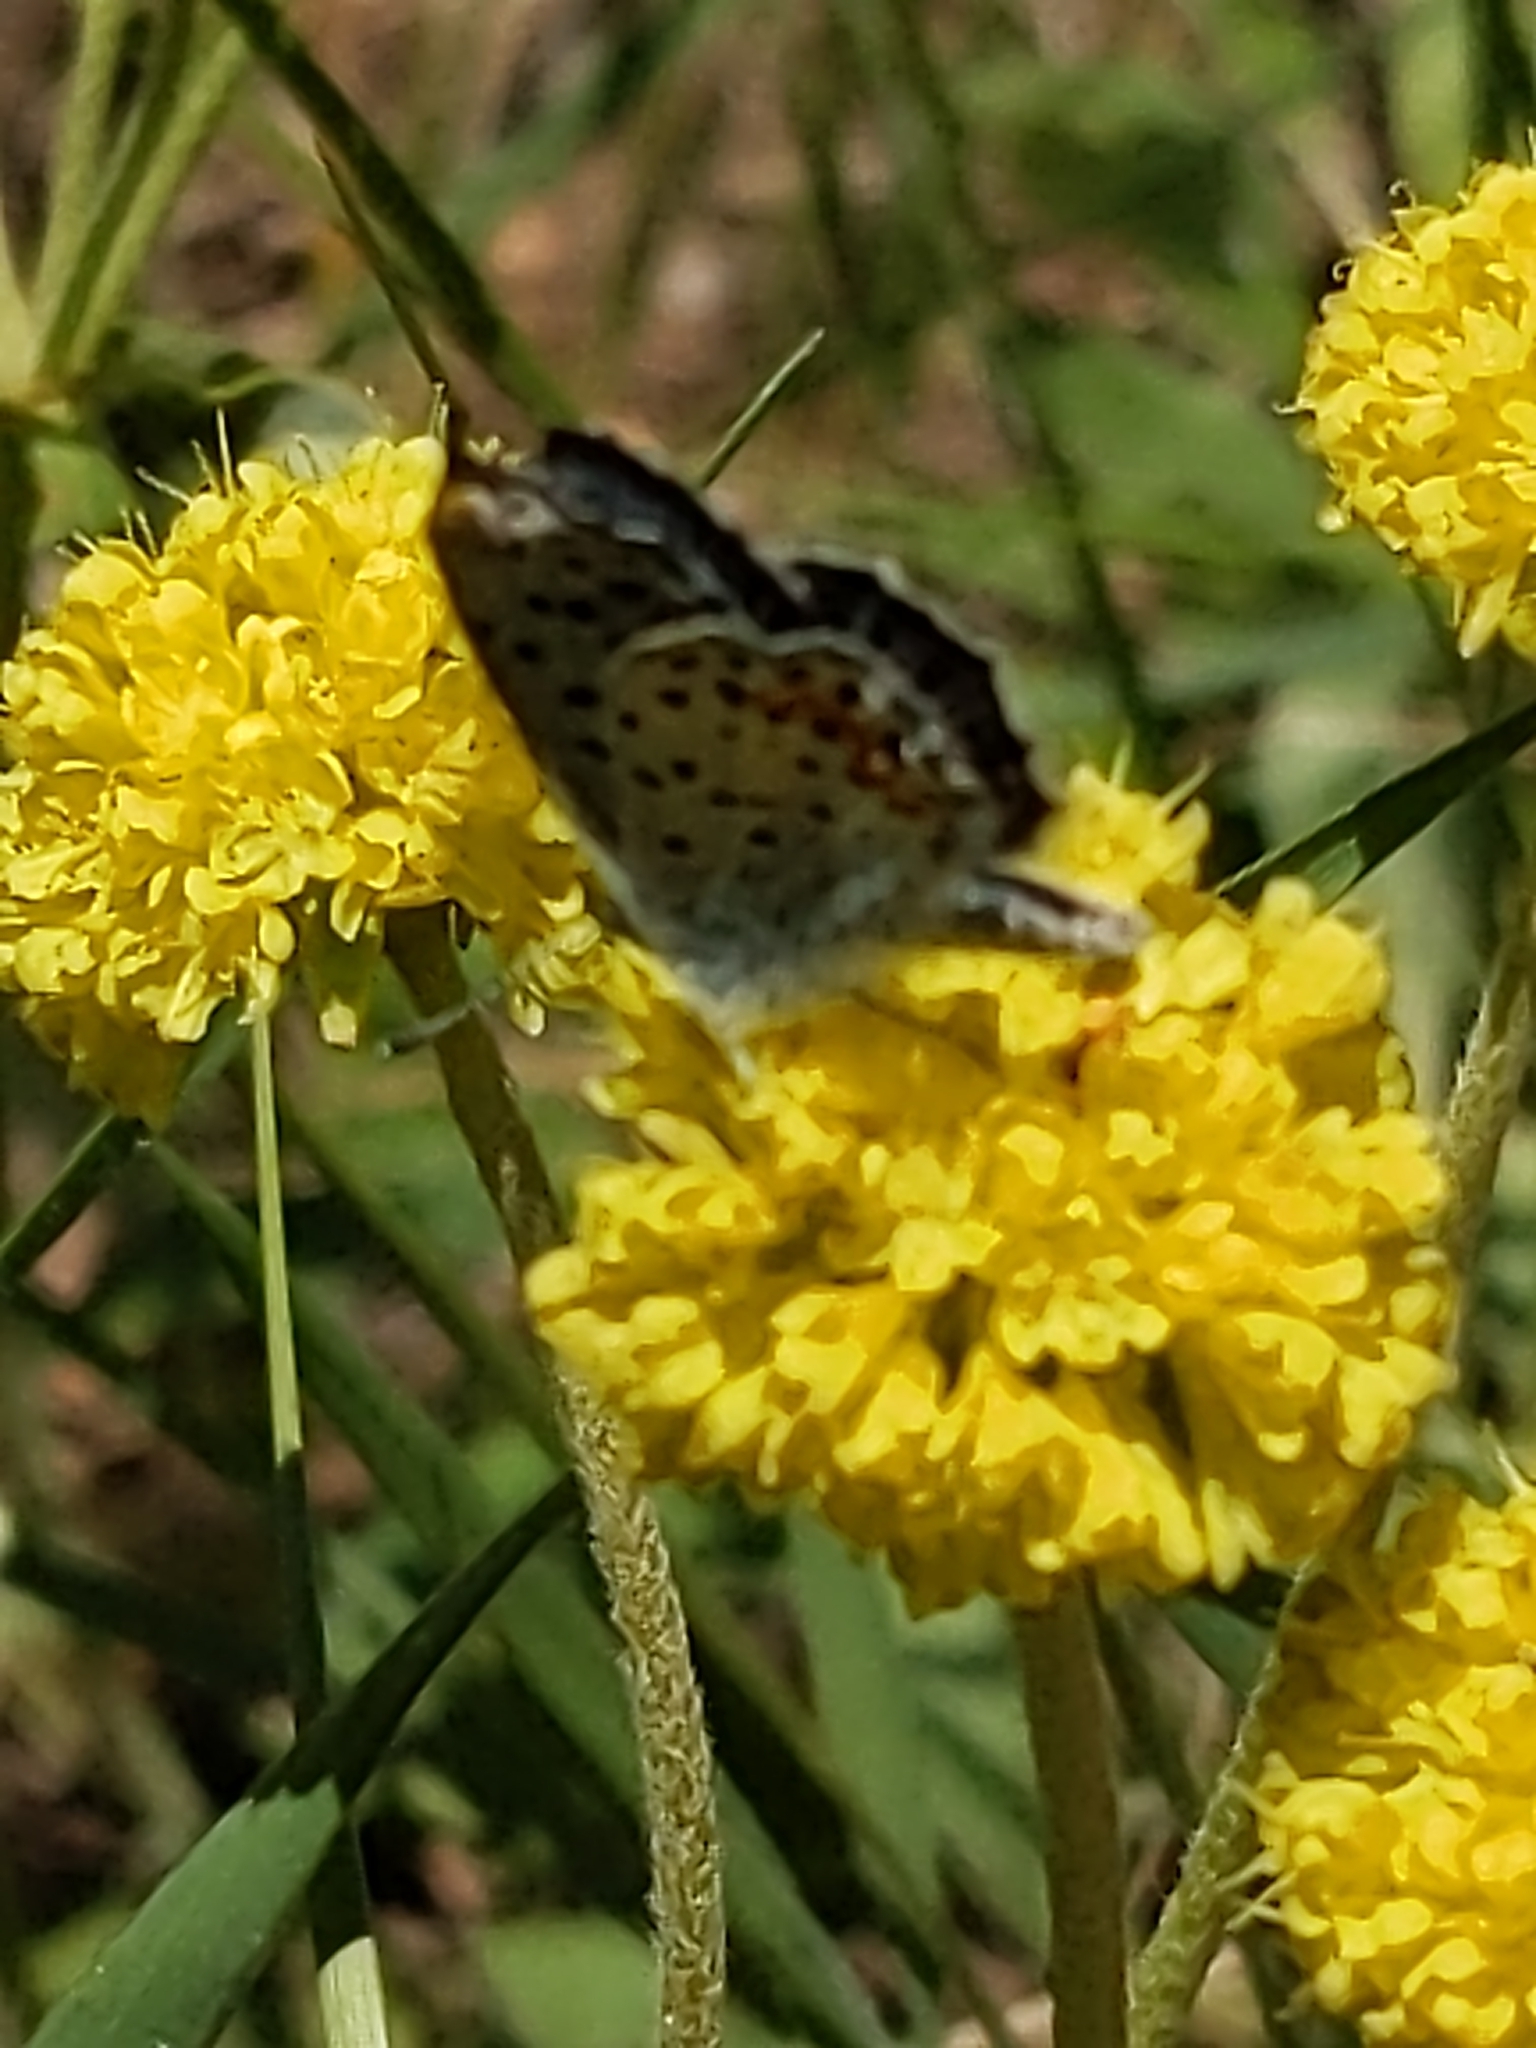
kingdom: Animalia
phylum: Arthropoda
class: Insecta
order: Lepidoptera
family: Lycaenidae
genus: Euphilotes
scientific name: Euphilotes enoptes
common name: Dotted blue
